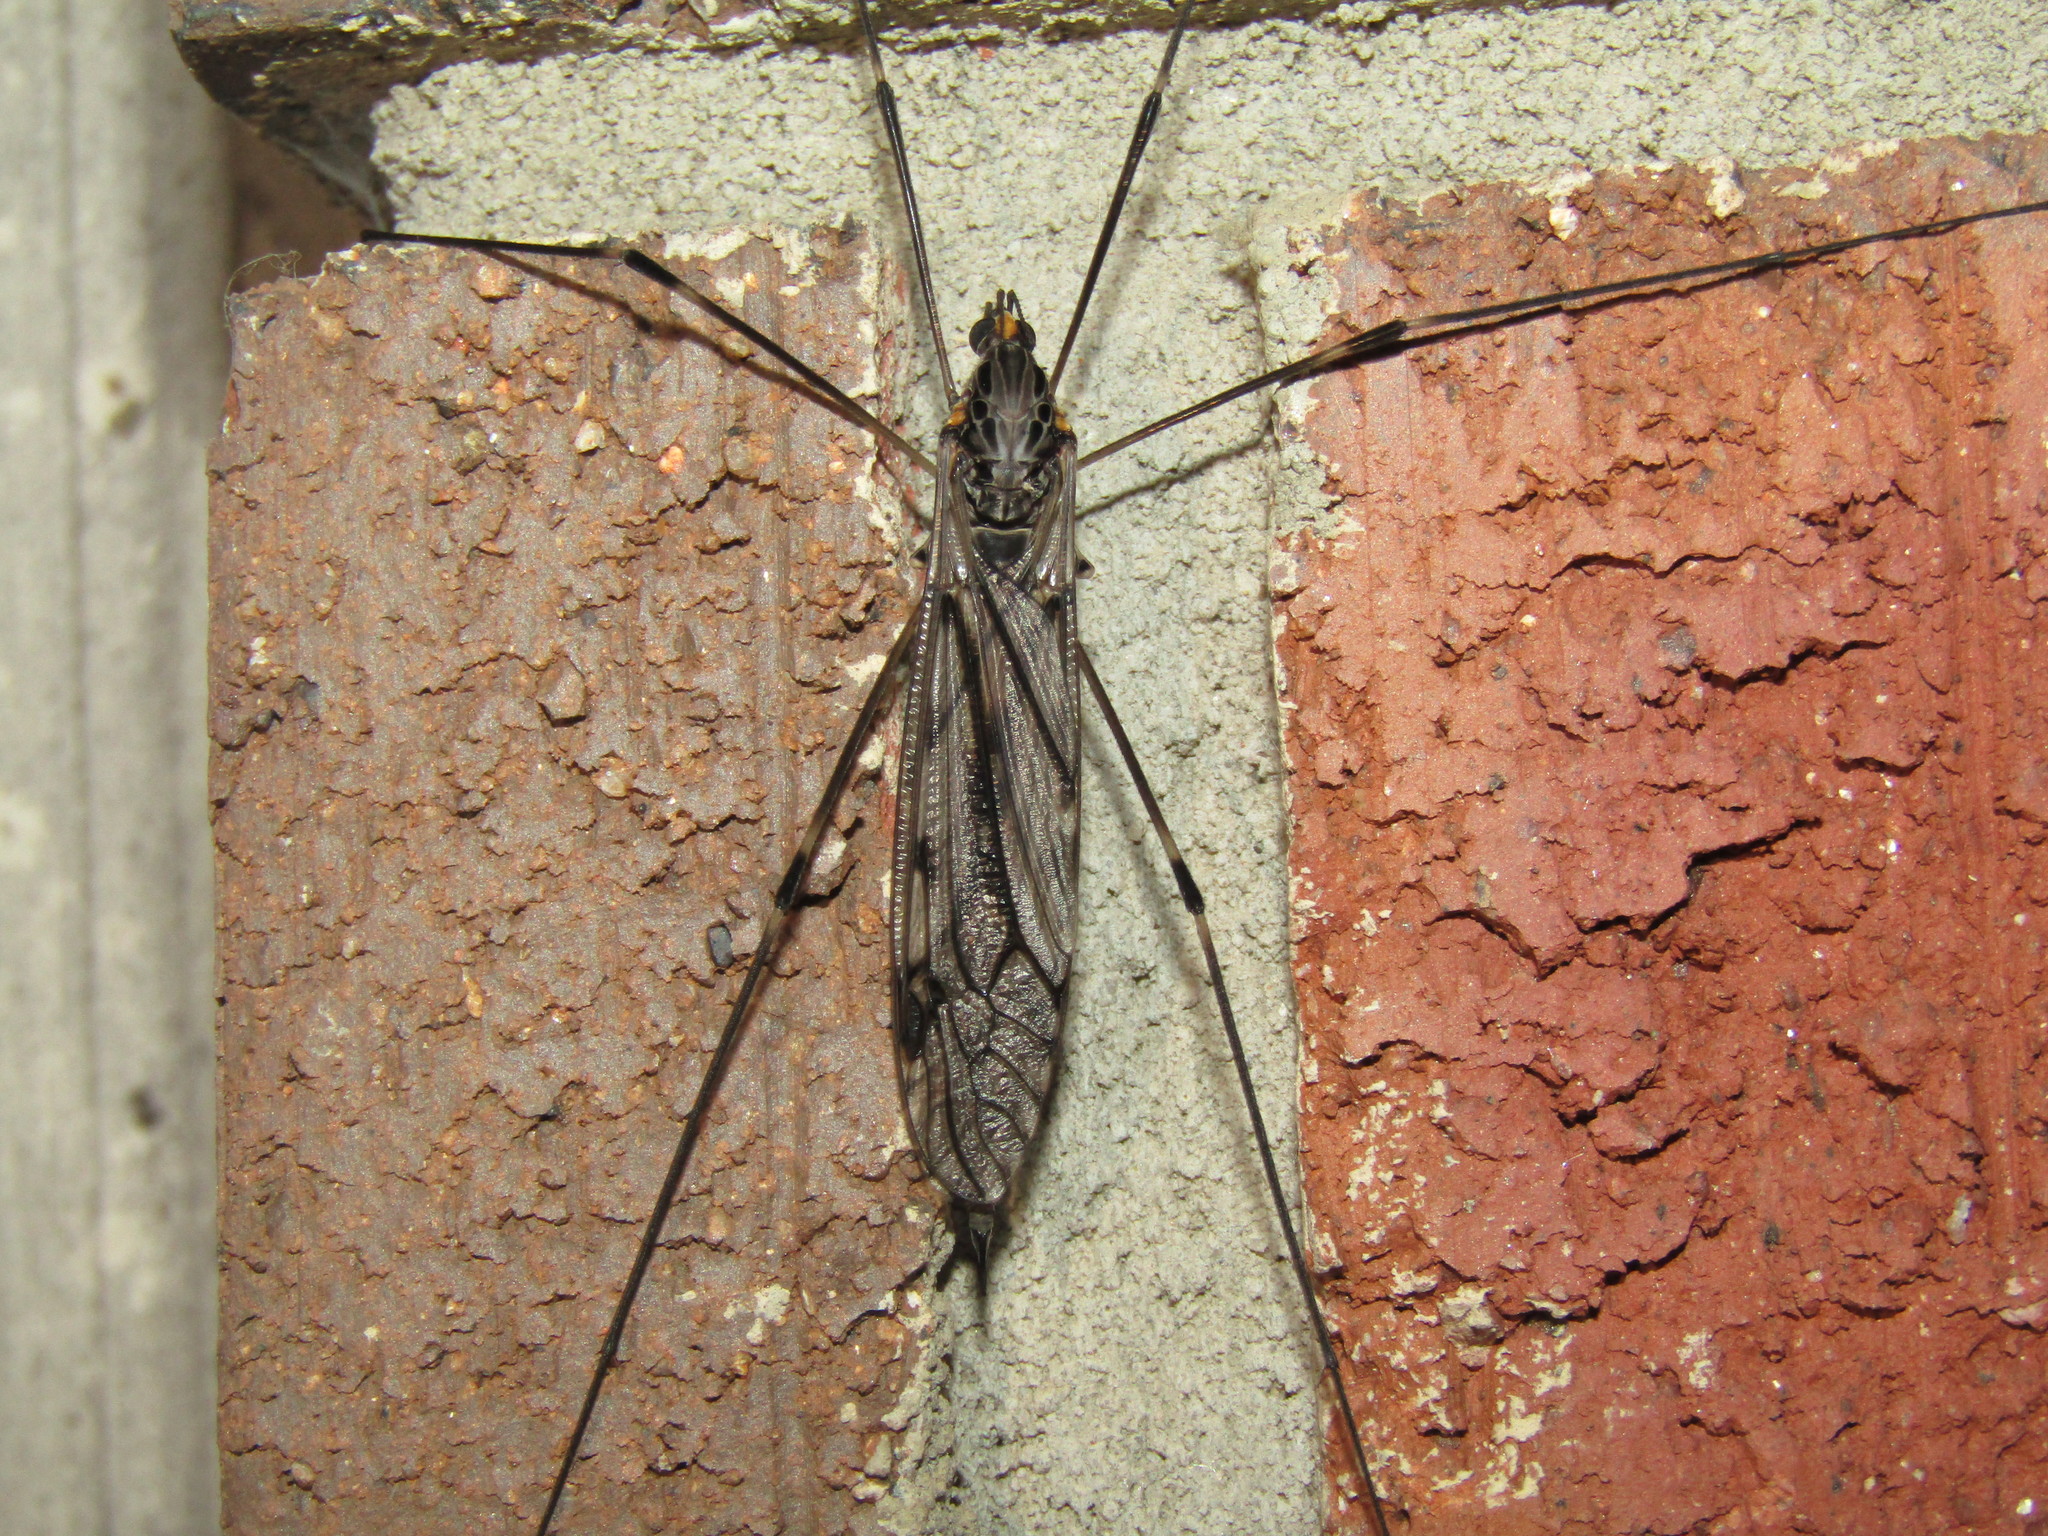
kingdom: Animalia
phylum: Arthropoda
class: Insecta
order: Diptera
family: Tipulidae
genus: Tipula
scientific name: Tipula abdominalis
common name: Giant crane fly
